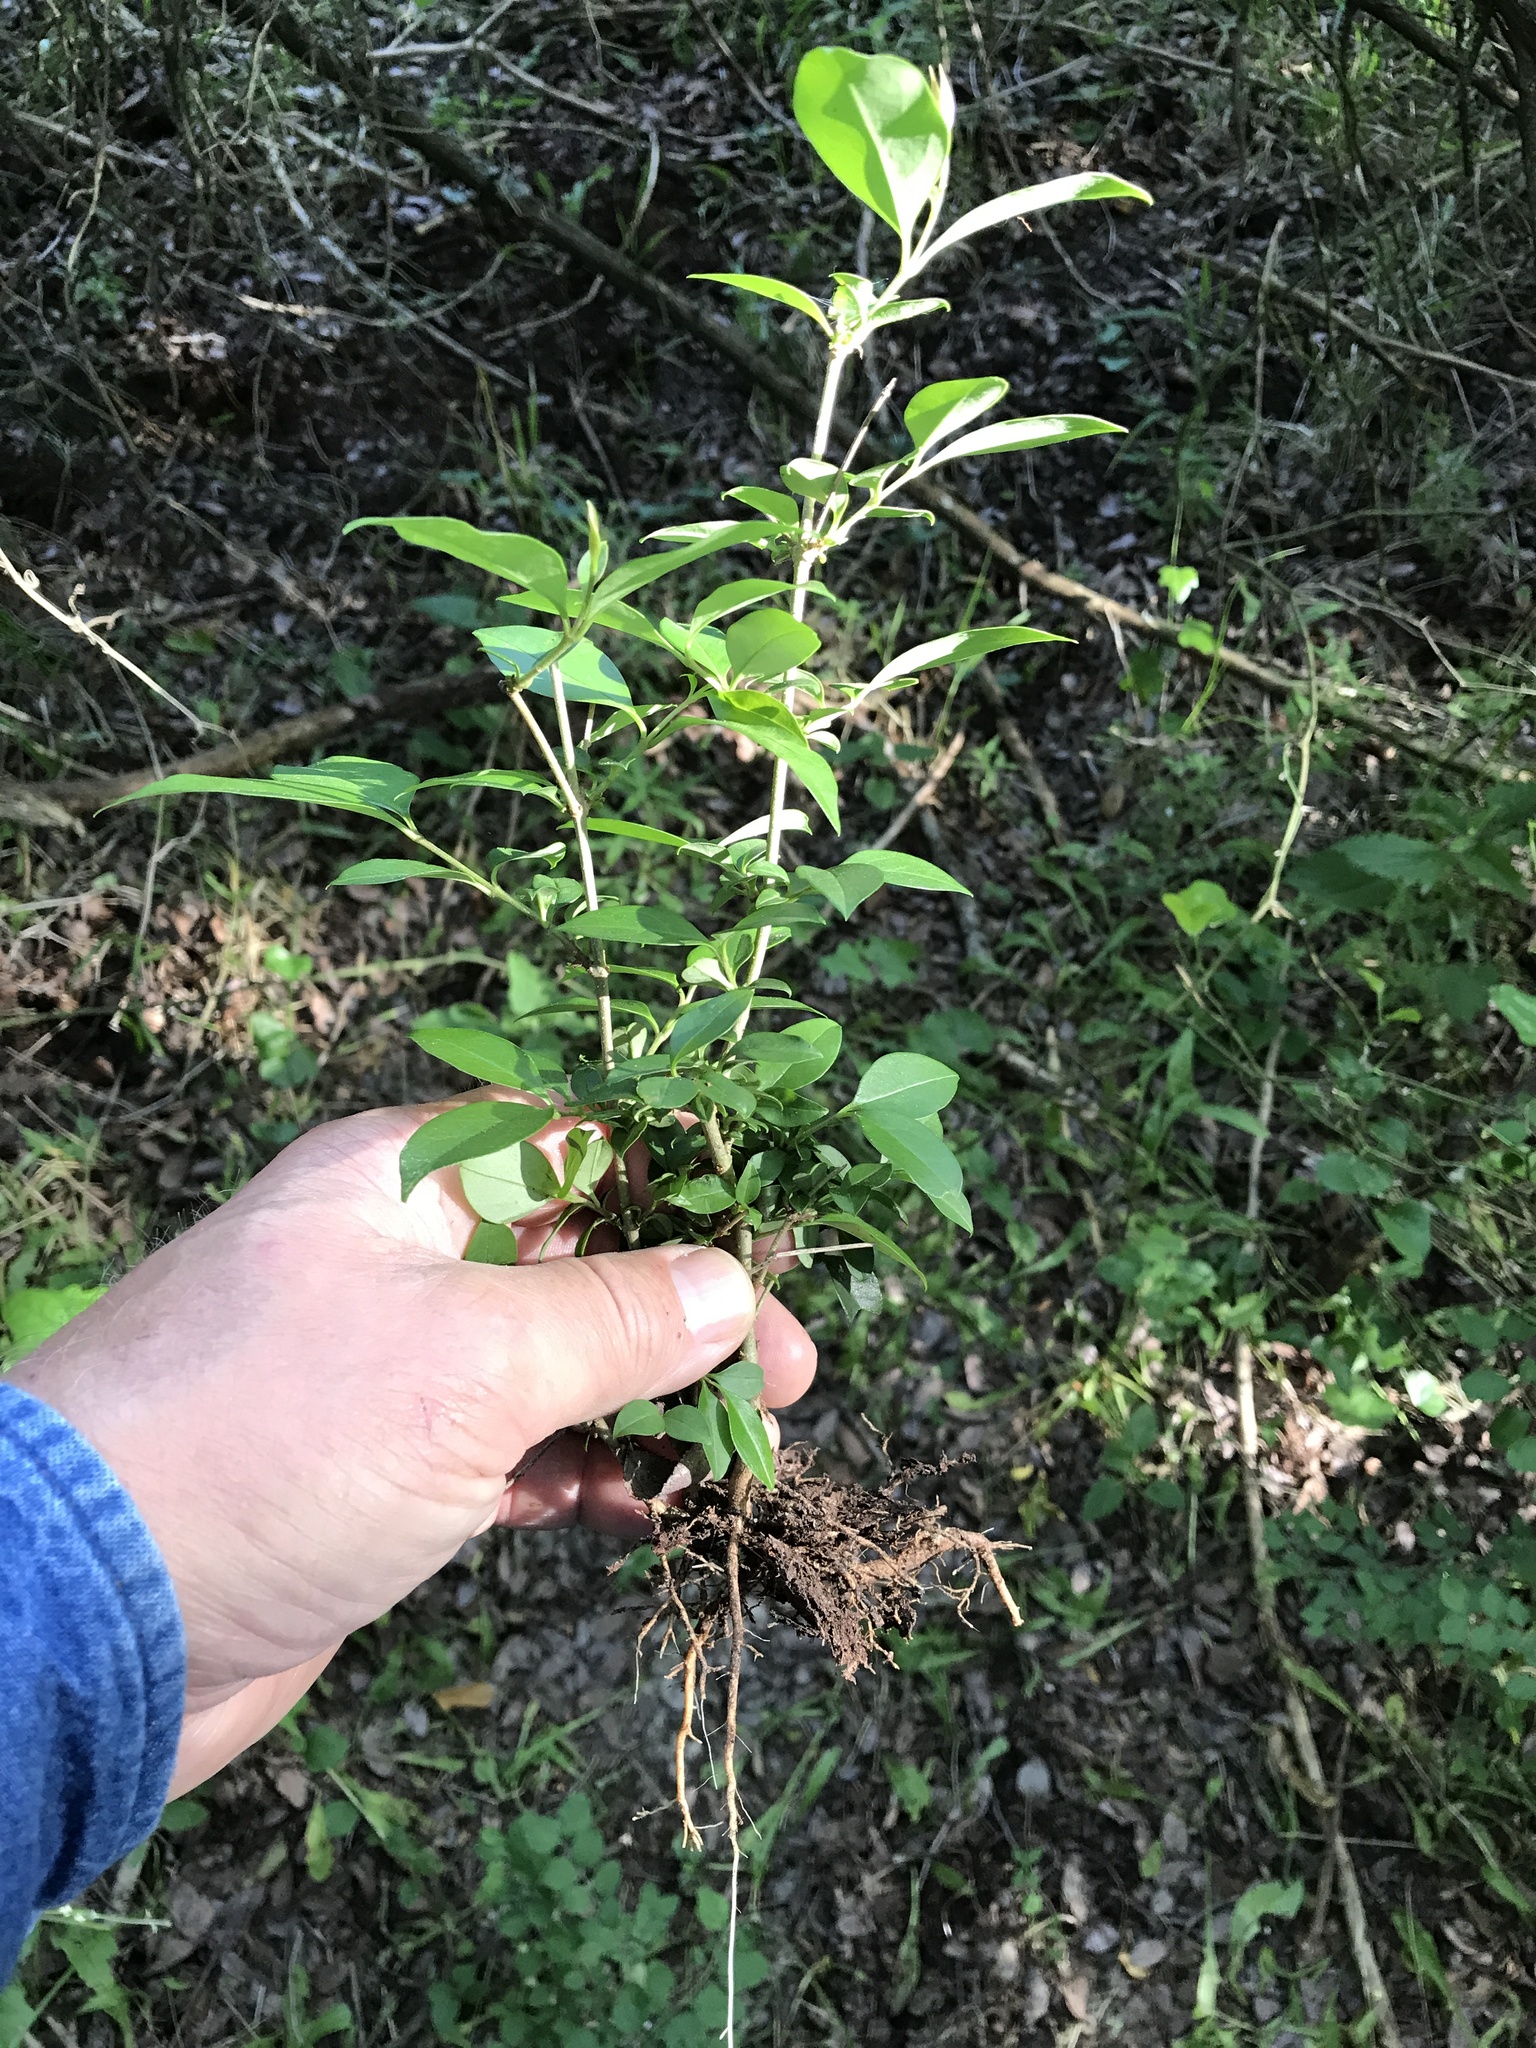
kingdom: Plantae
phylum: Tracheophyta
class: Magnoliopsida
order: Lamiales
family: Oleaceae
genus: Ligustrum
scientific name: Ligustrum lucidum
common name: Glossy privet
